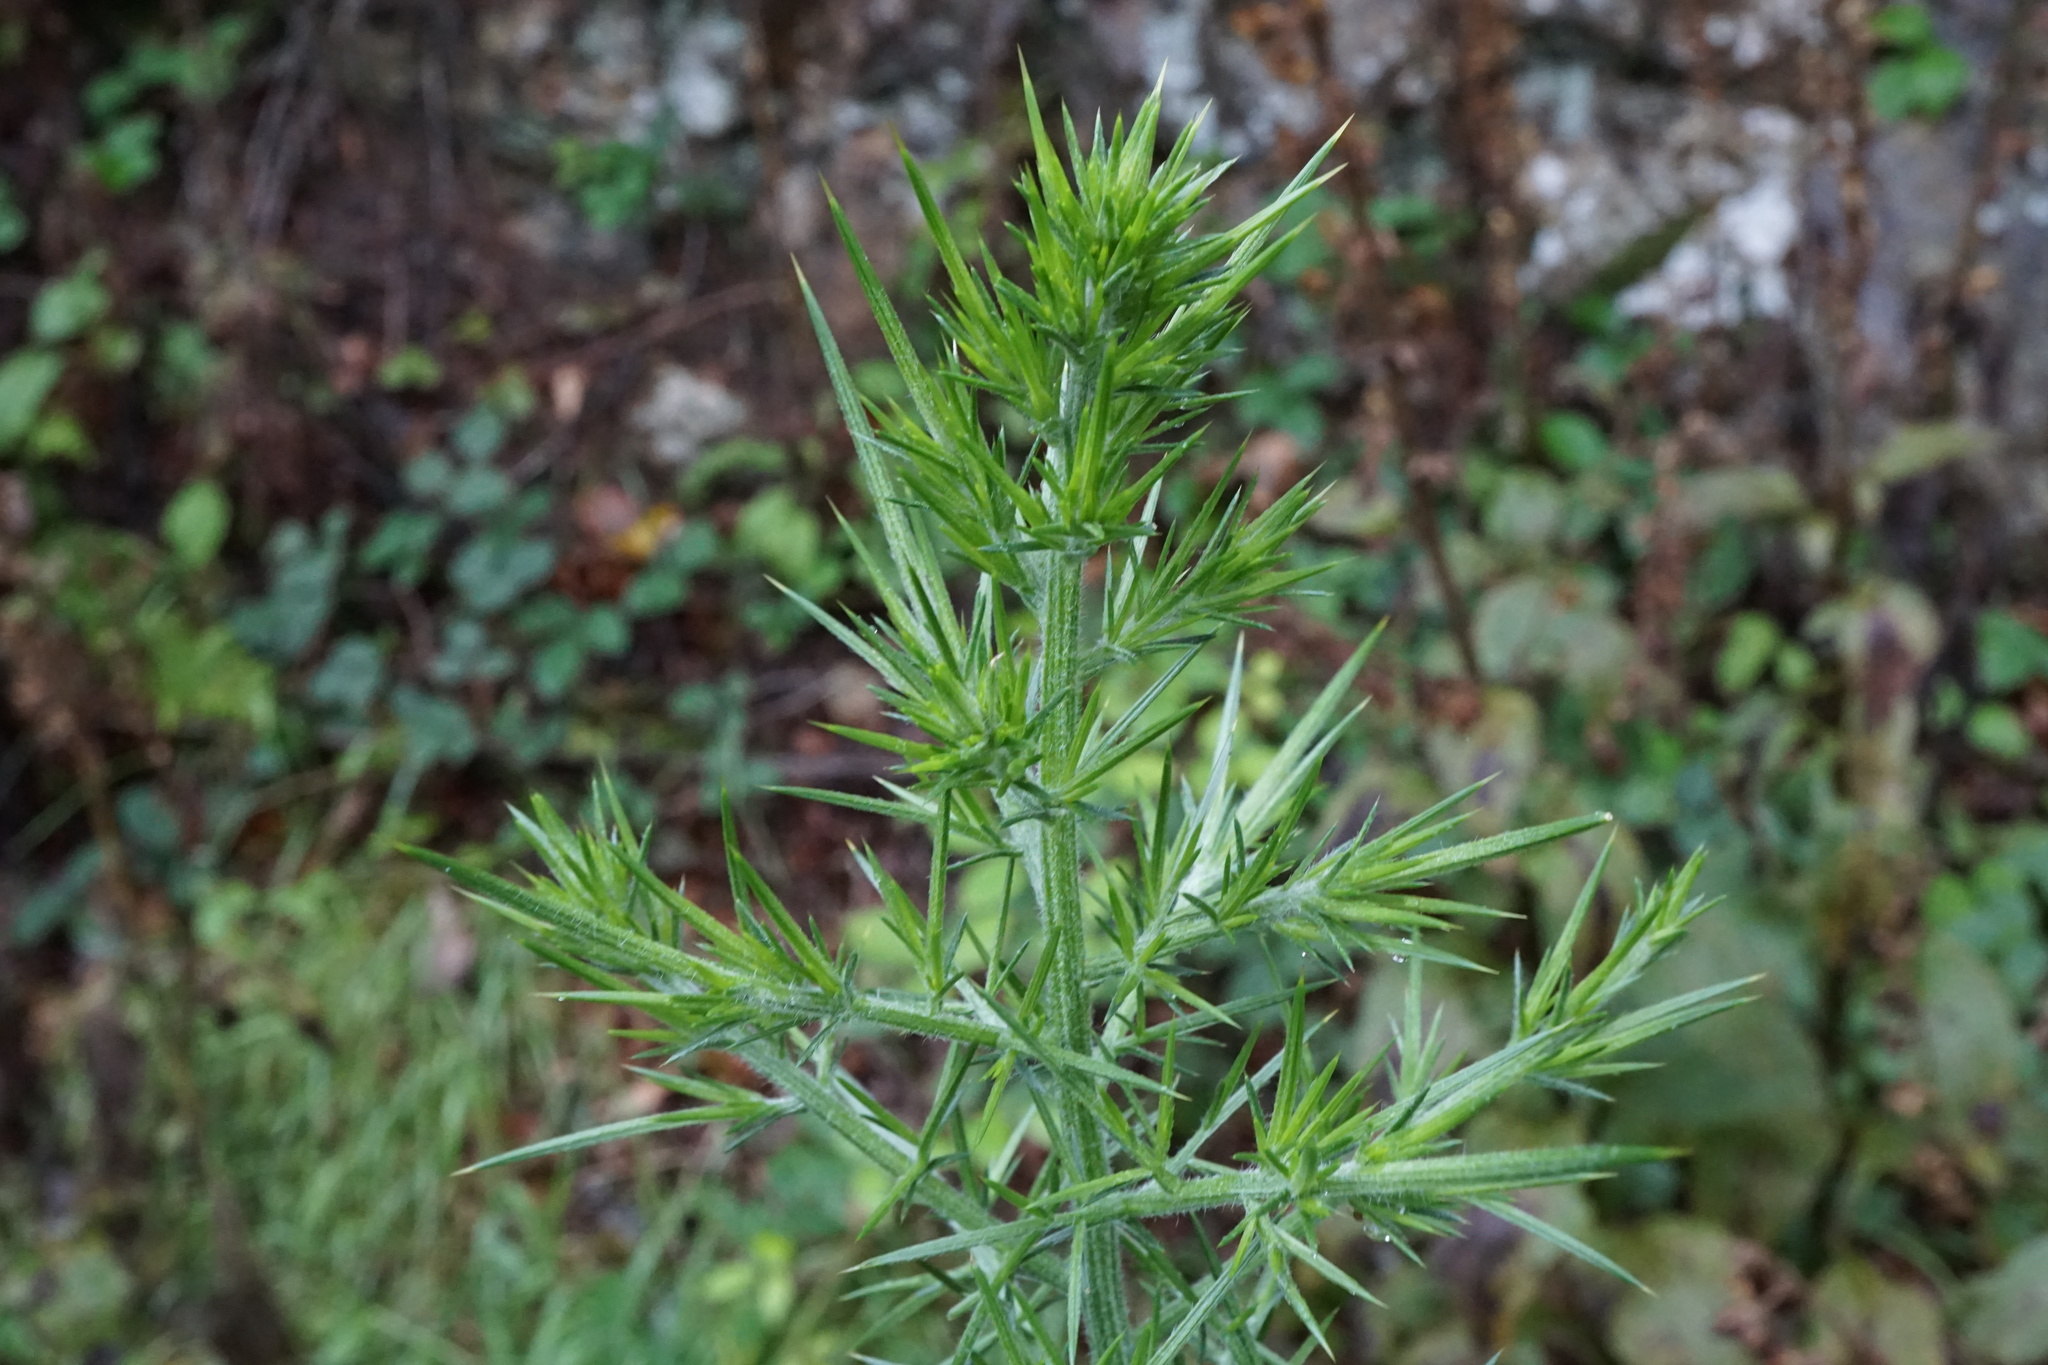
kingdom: Plantae
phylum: Tracheophyta
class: Magnoliopsida
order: Fabales
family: Fabaceae
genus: Ulex
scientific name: Ulex europaeus
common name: Common gorse
